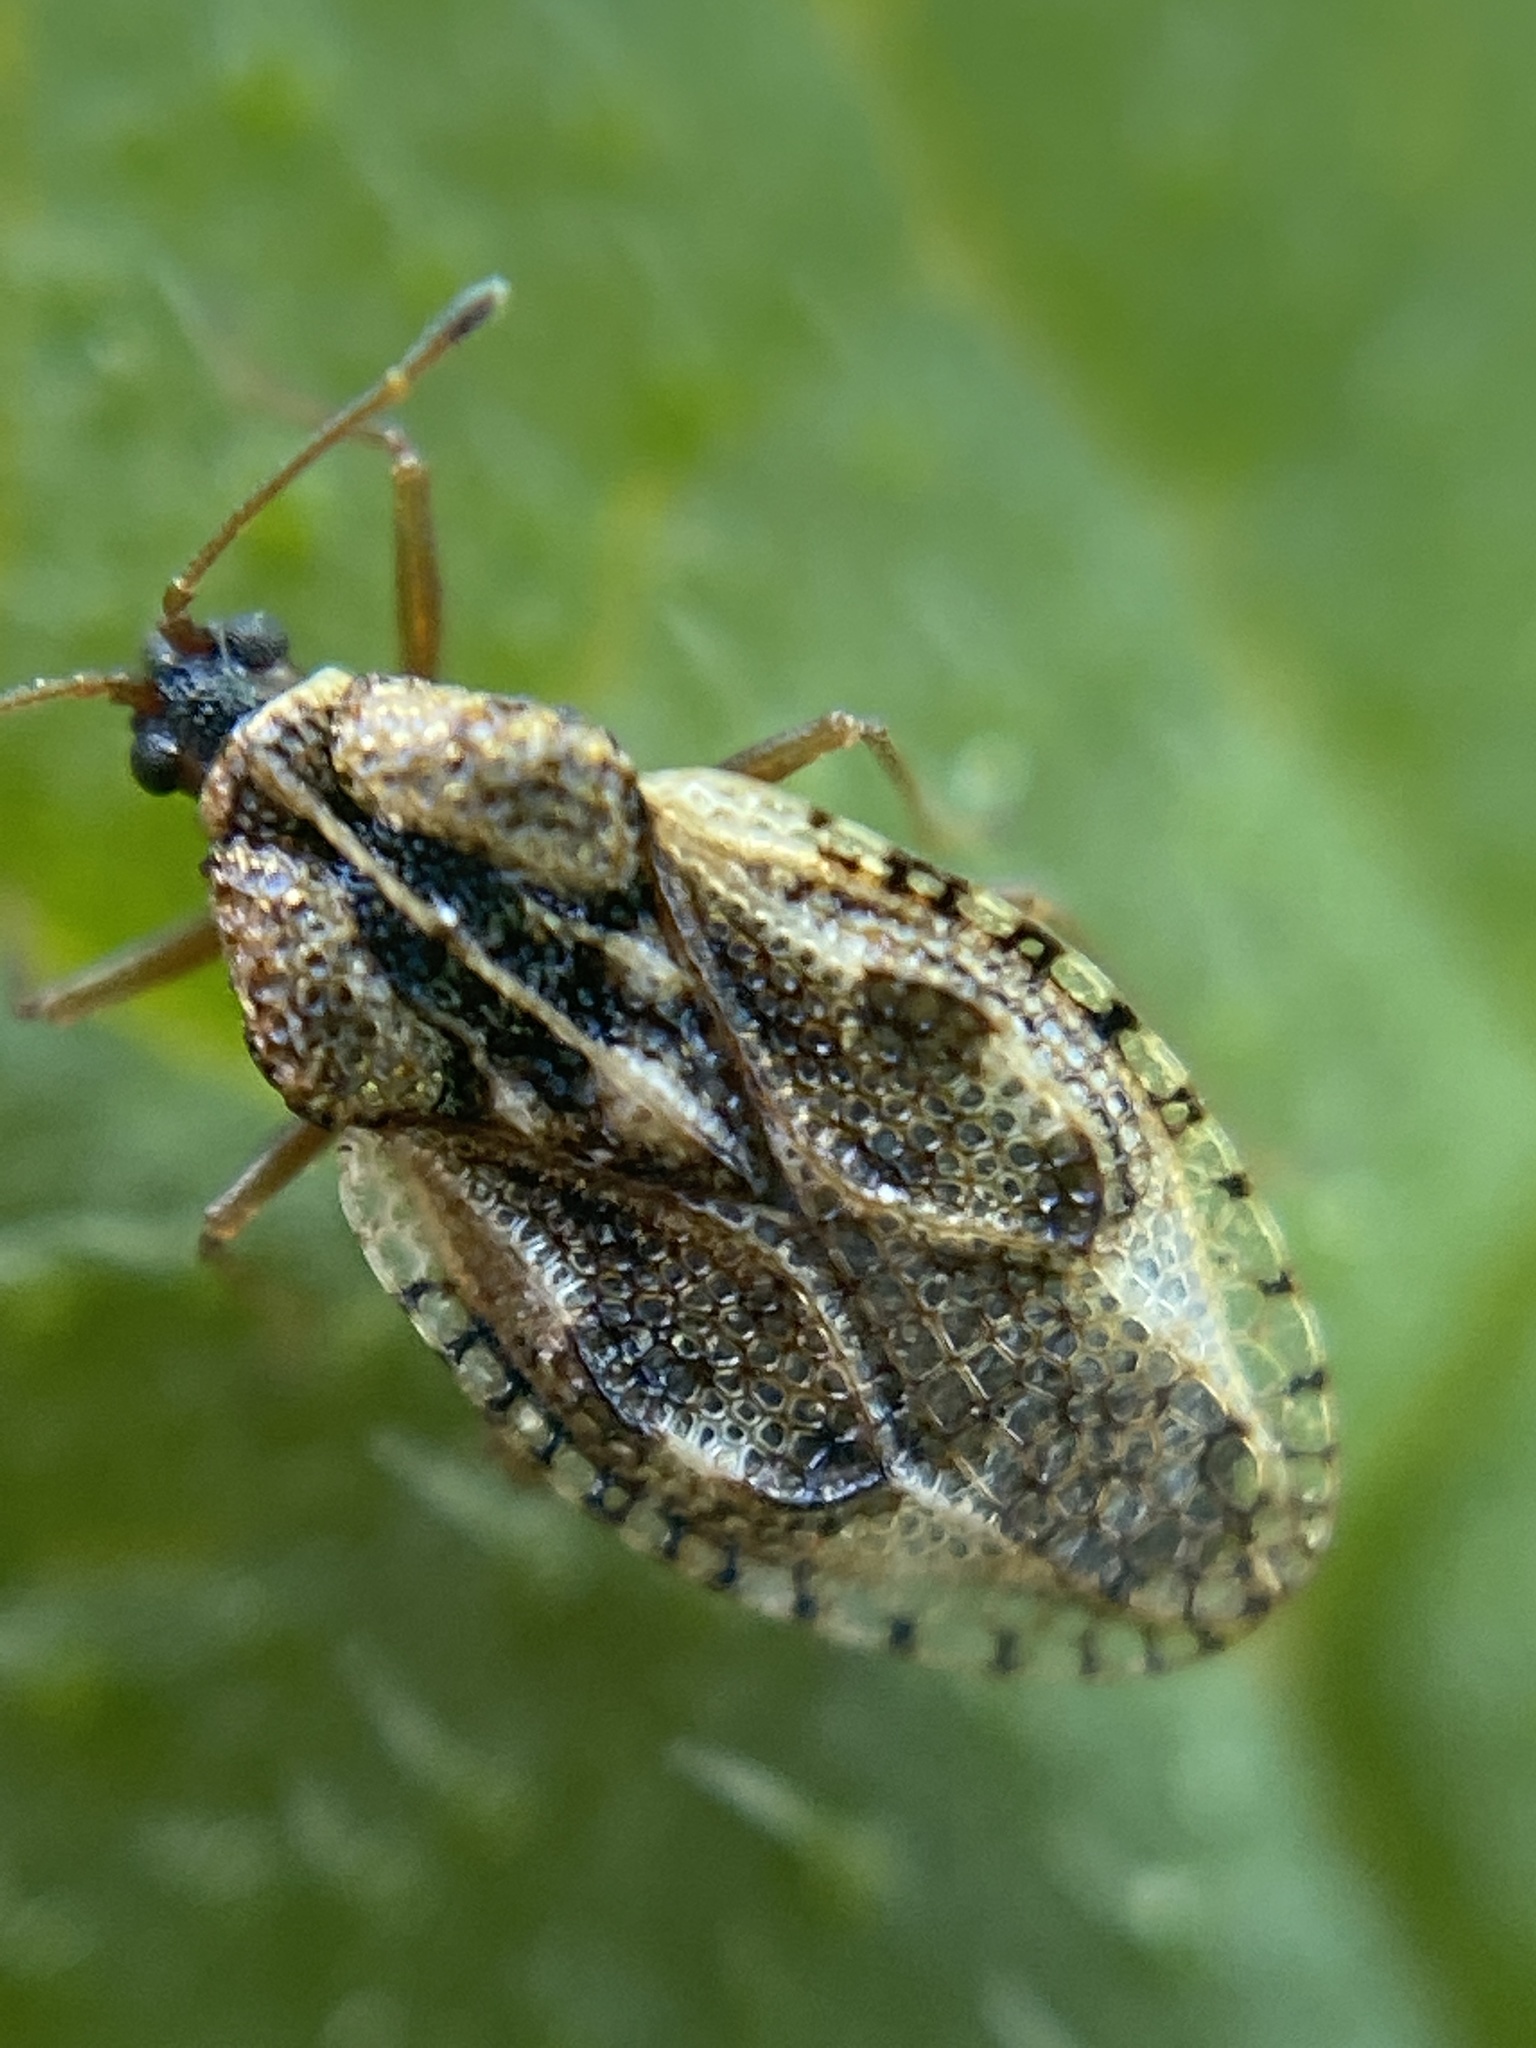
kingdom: Animalia
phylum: Arthropoda
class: Insecta
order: Hemiptera
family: Tingidae
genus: Dictyla
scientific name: Dictyla humuli
